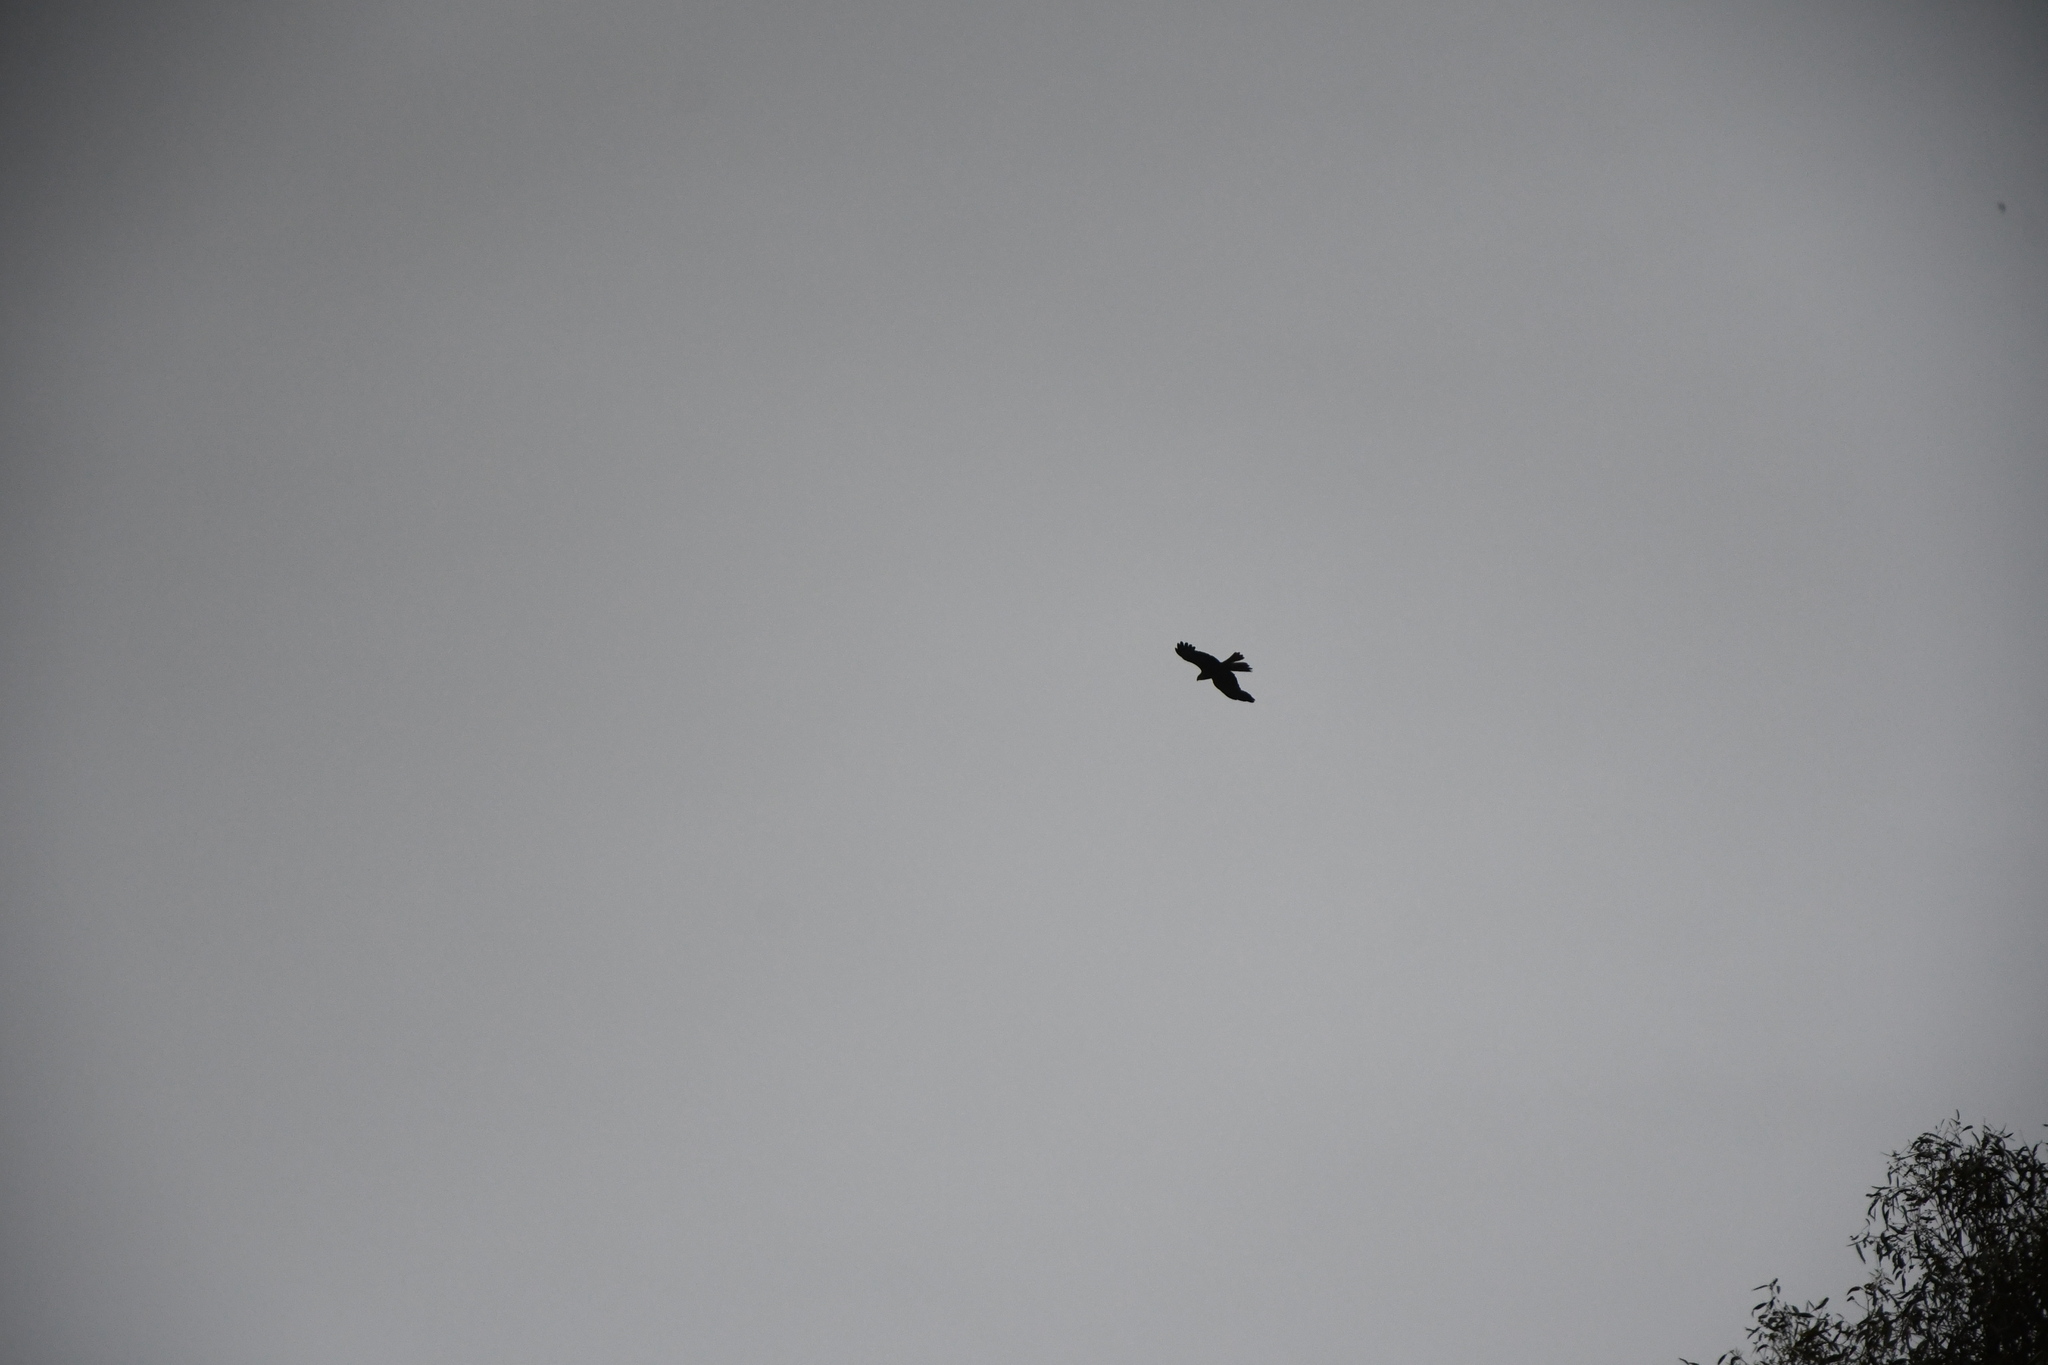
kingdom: Animalia
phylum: Chordata
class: Aves
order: Accipitriformes
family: Accipitridae
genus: Milvus
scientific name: Milvus migrans
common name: Black kite
